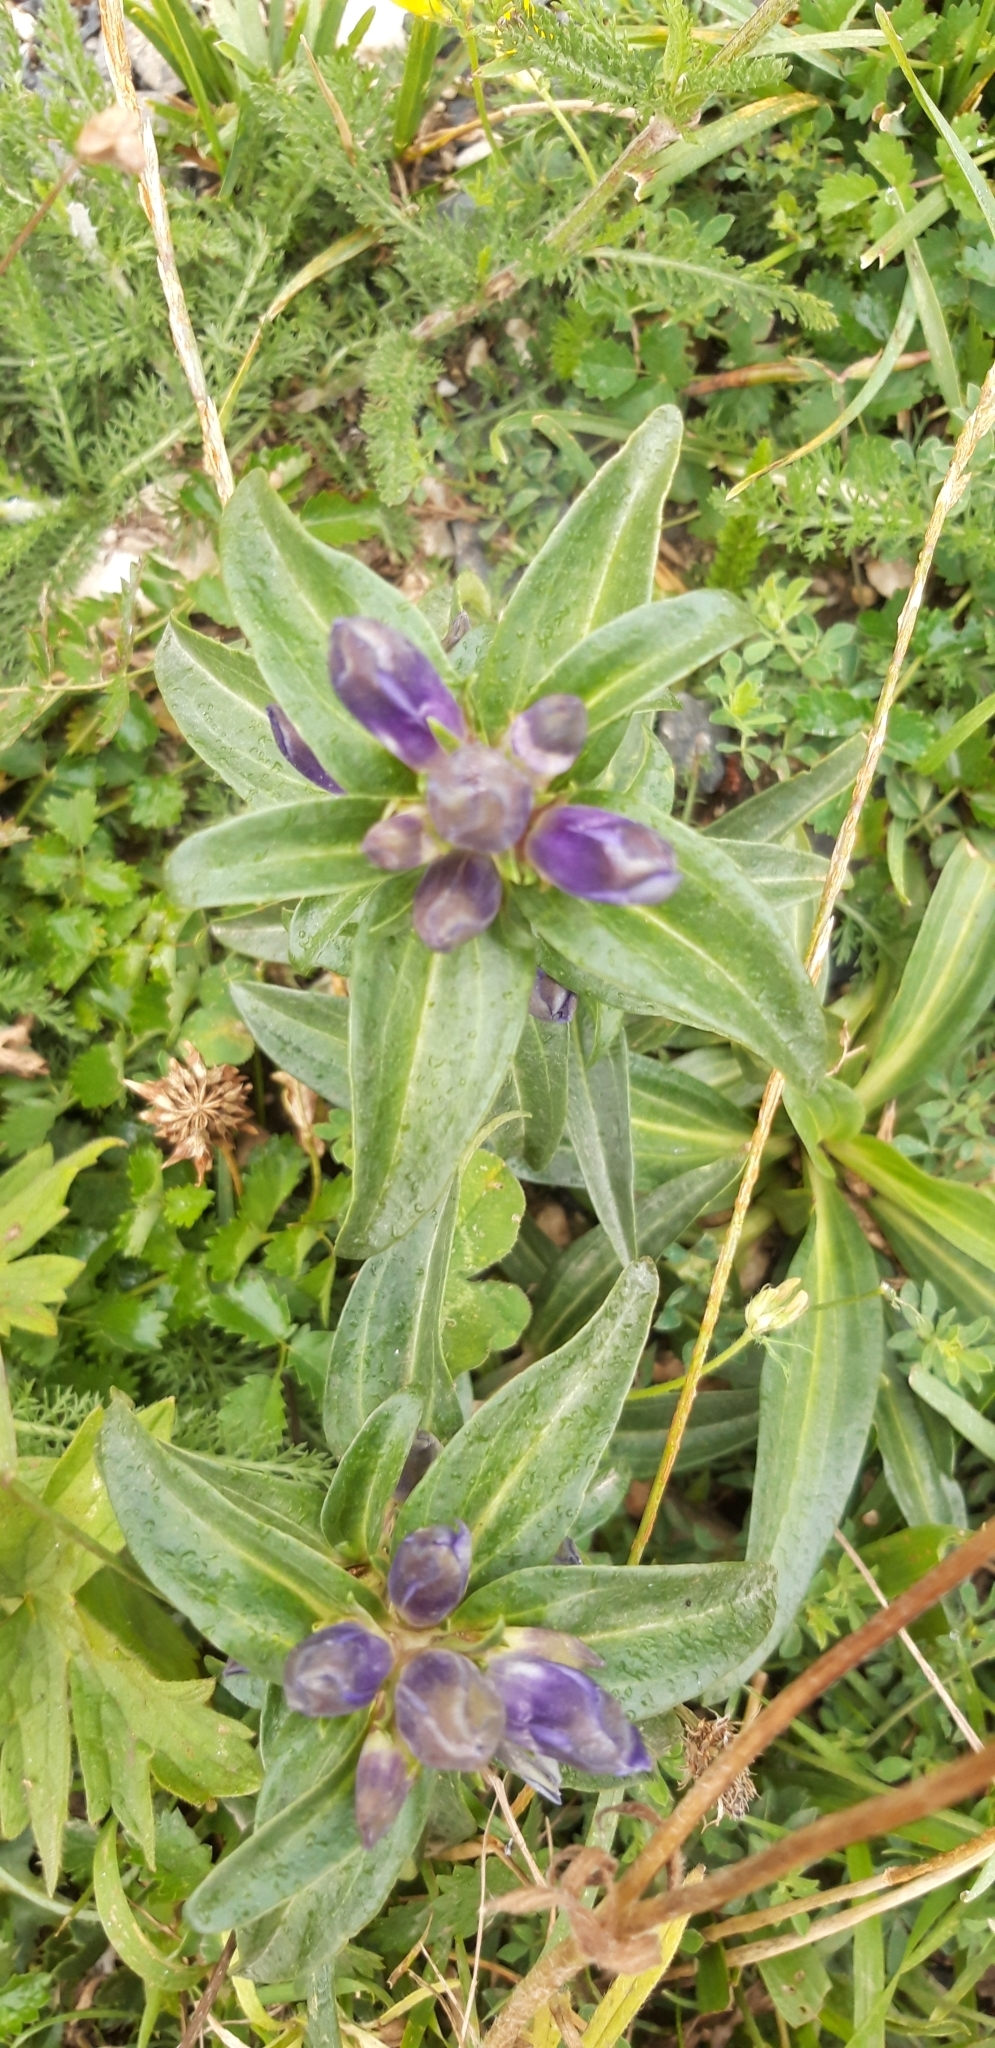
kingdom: Plantae
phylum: Tracheophyta
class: Magnoliopsida
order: Gentianales
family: Gentianaceae
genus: Gentiana
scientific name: Gentiana cruciata
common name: Cross gentian
